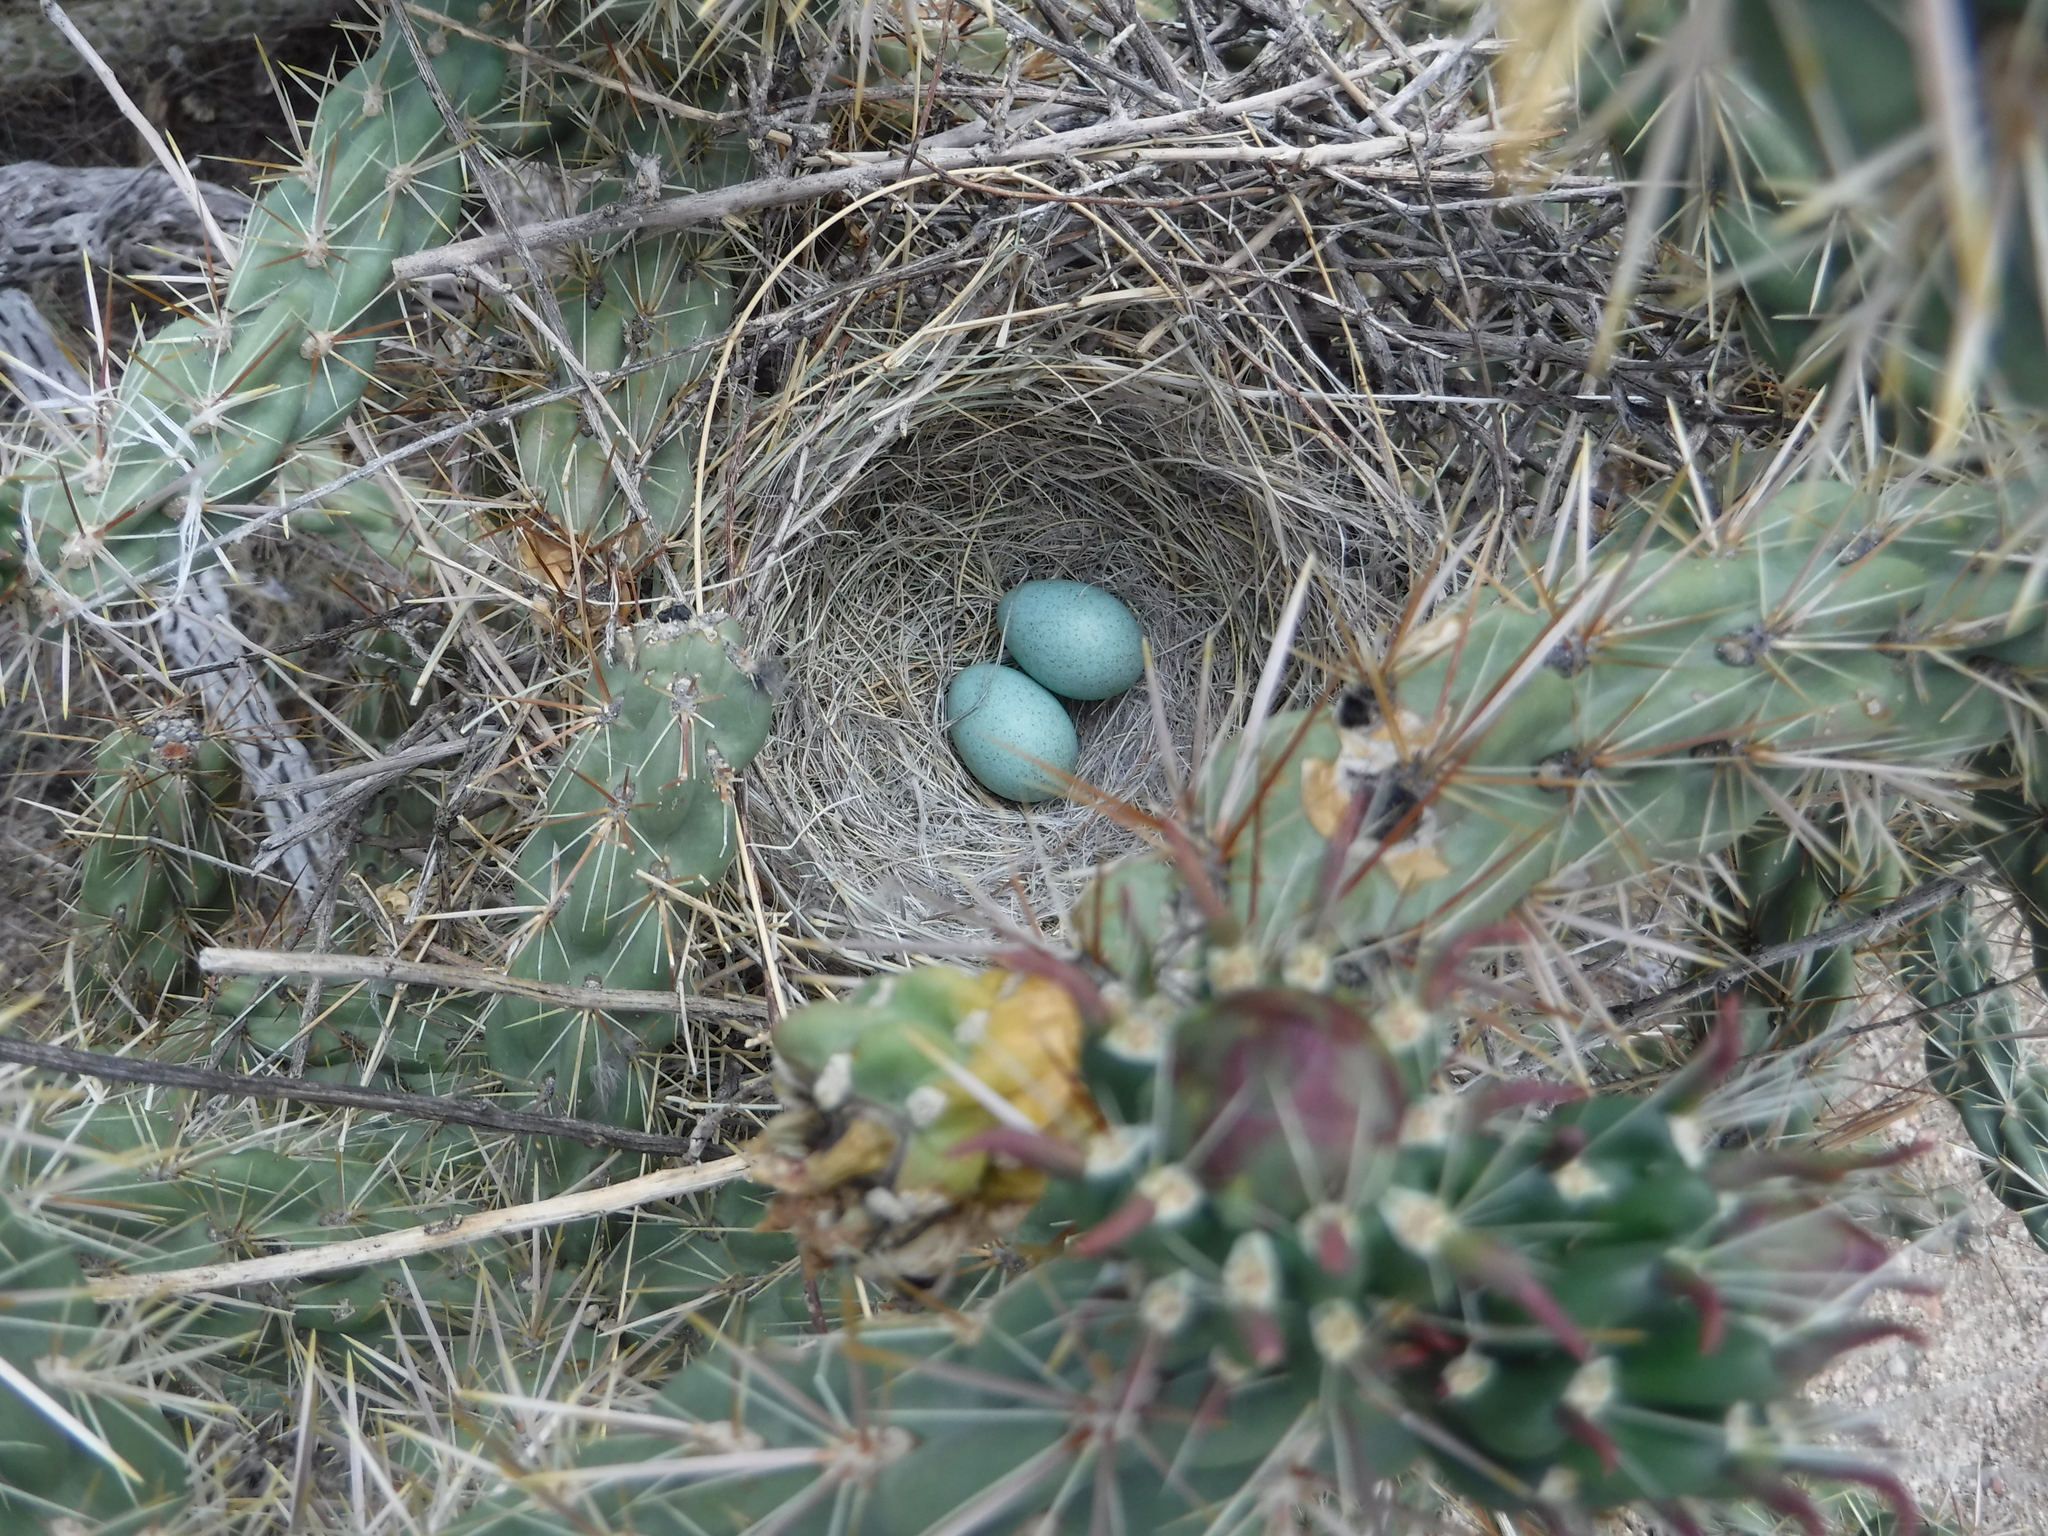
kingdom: Animalia
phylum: Chordata
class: Aves
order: Passeriformes
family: Mimidae
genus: Toxostoma
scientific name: Toxostoma curvirostre
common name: Curve-billed thrasher
